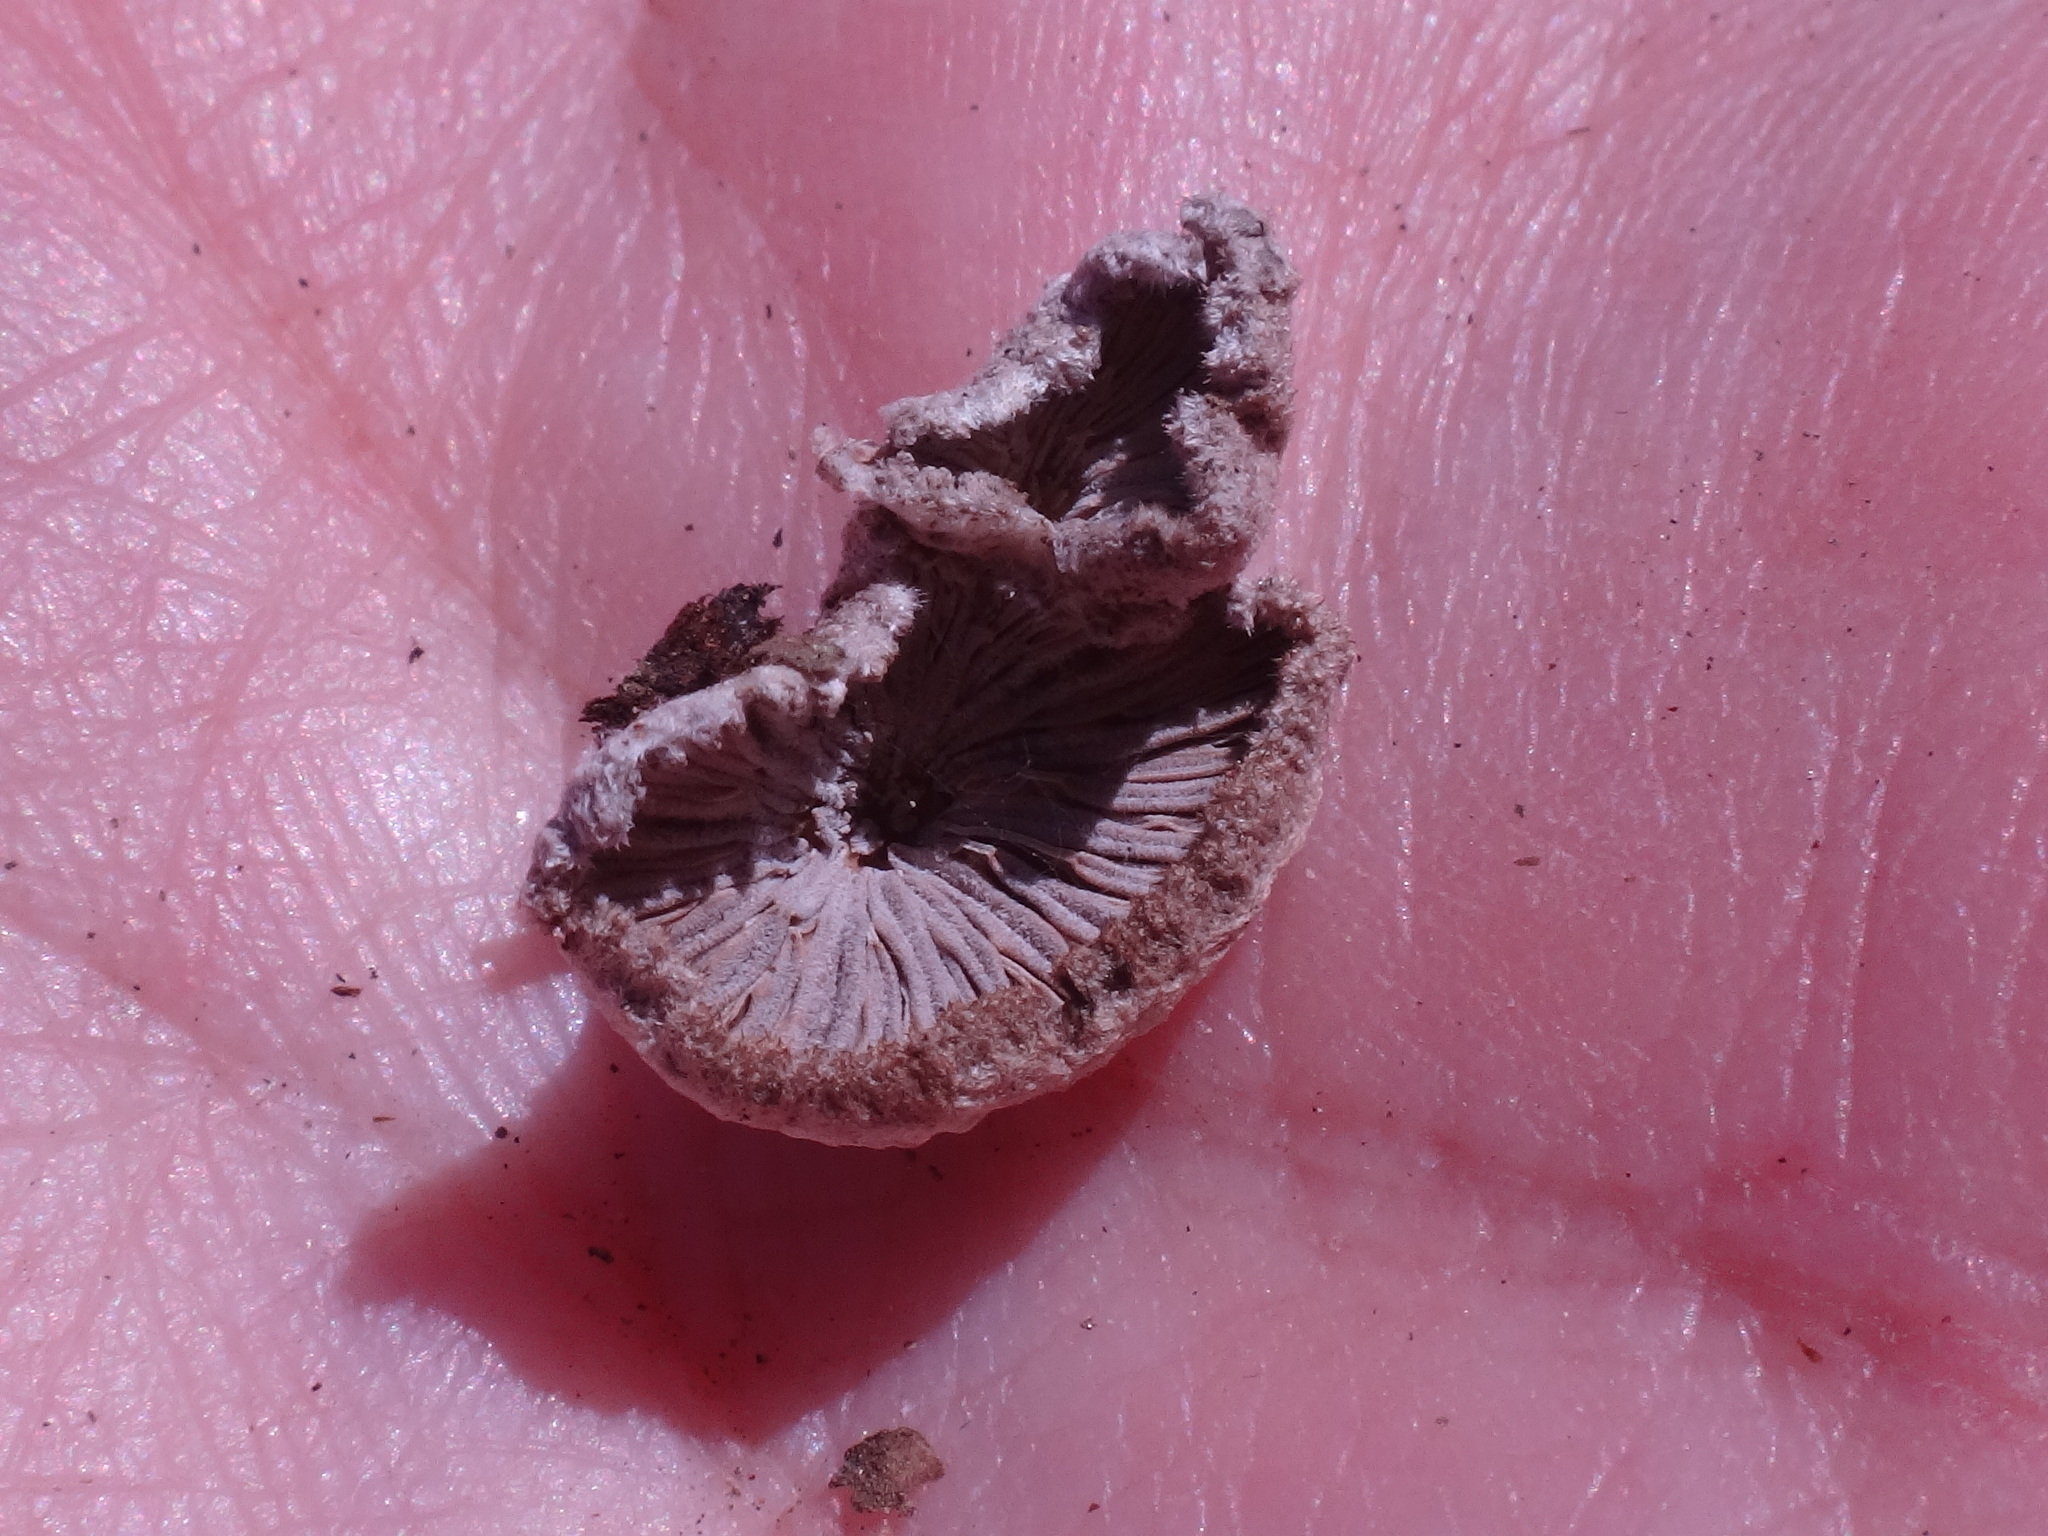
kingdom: Fungi
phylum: Basidiomycota
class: Agaricomycetes
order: Agaricales
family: Schizophyllaceae
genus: Schizophyllum
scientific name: Schizophyllum commune
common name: Common porecrust
